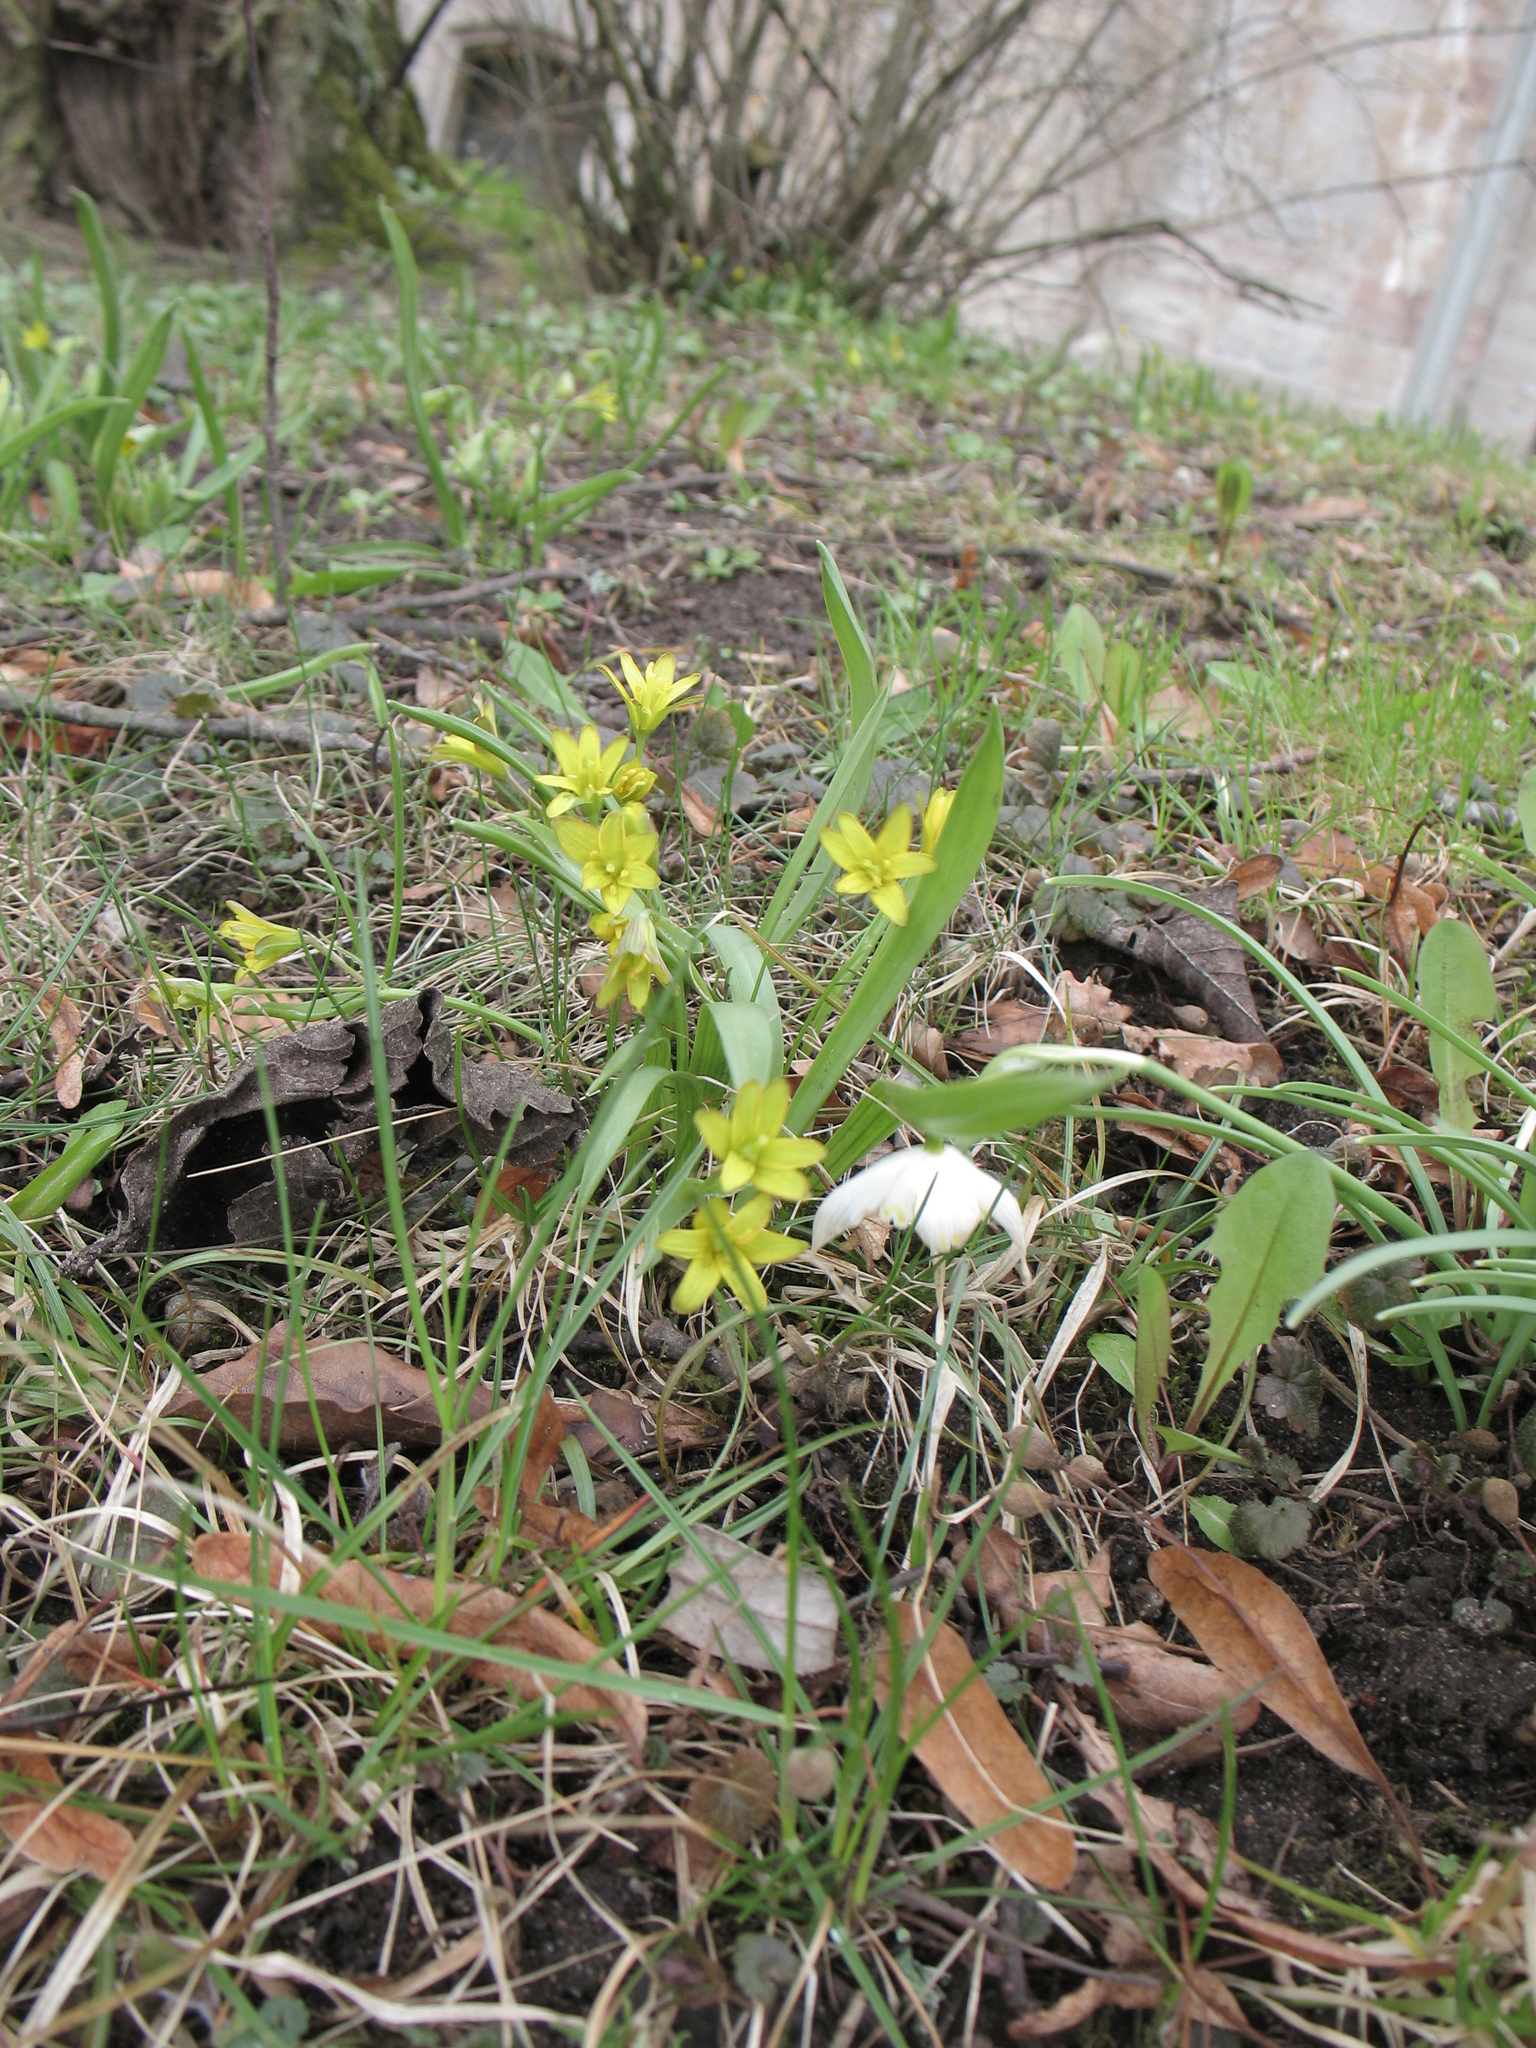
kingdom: Plantae
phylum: Tracheophyta
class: Liliopsida
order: Liliales
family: Liliaceae
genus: Gagea
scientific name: Gagea lutea
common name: Yellow star-of-bethlehem
